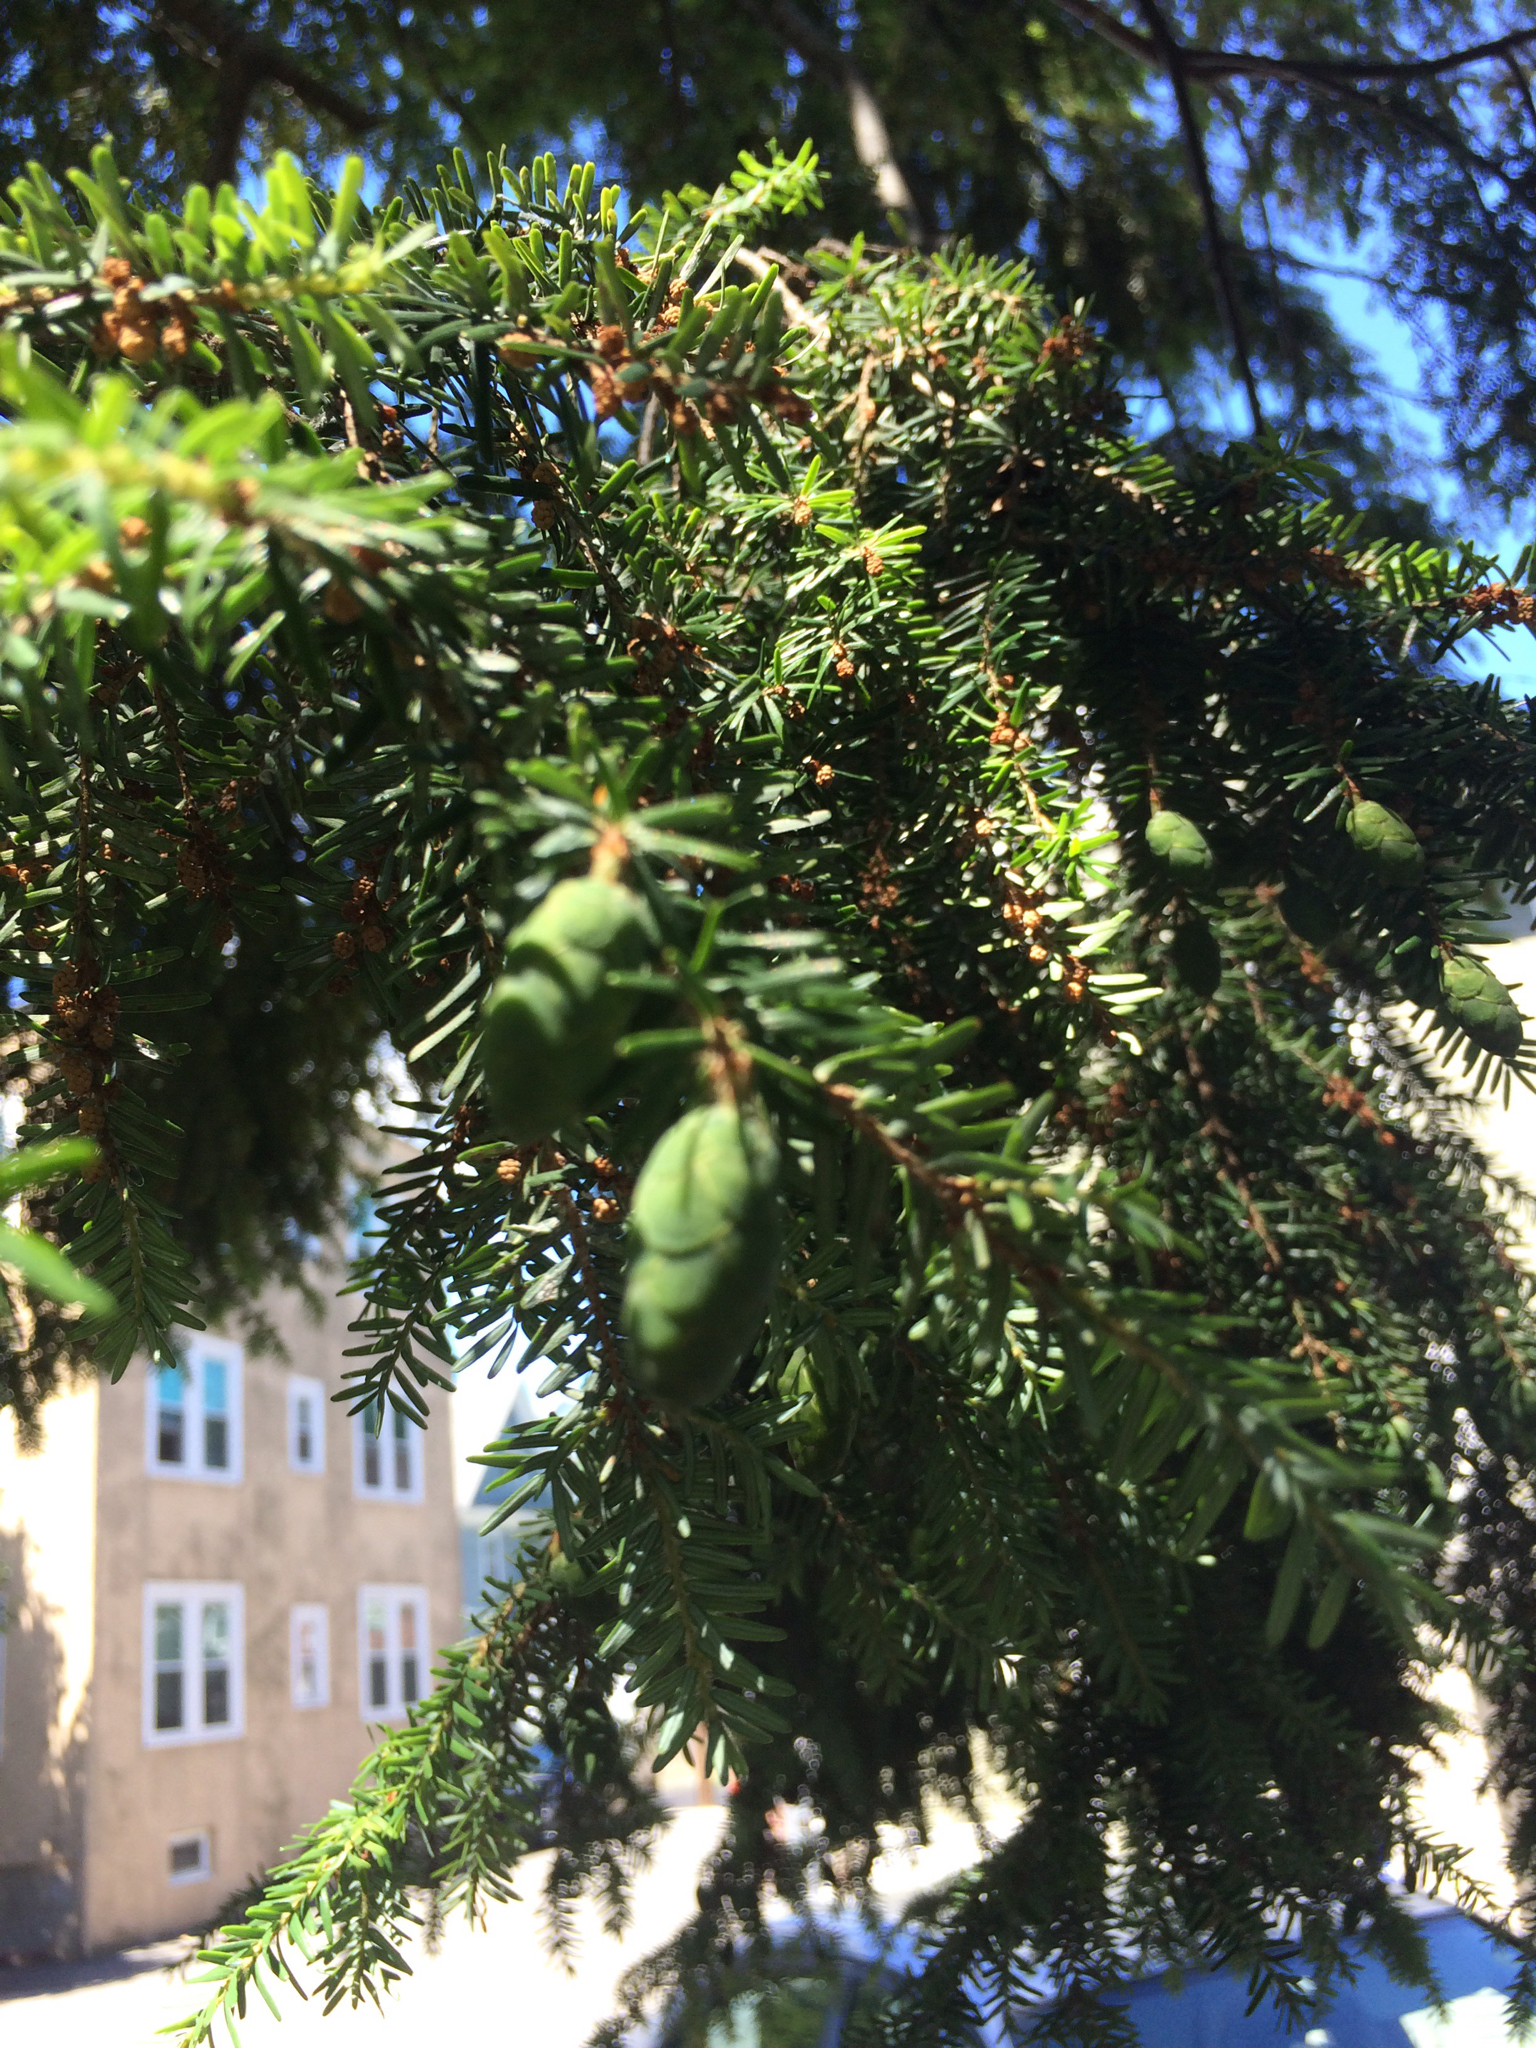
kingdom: Plantae
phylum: Tracheophyta
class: Pinopsida
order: Pinales
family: Pinaceae
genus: Tsuga
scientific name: Tsuga canadensis
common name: Eastern hemlock
